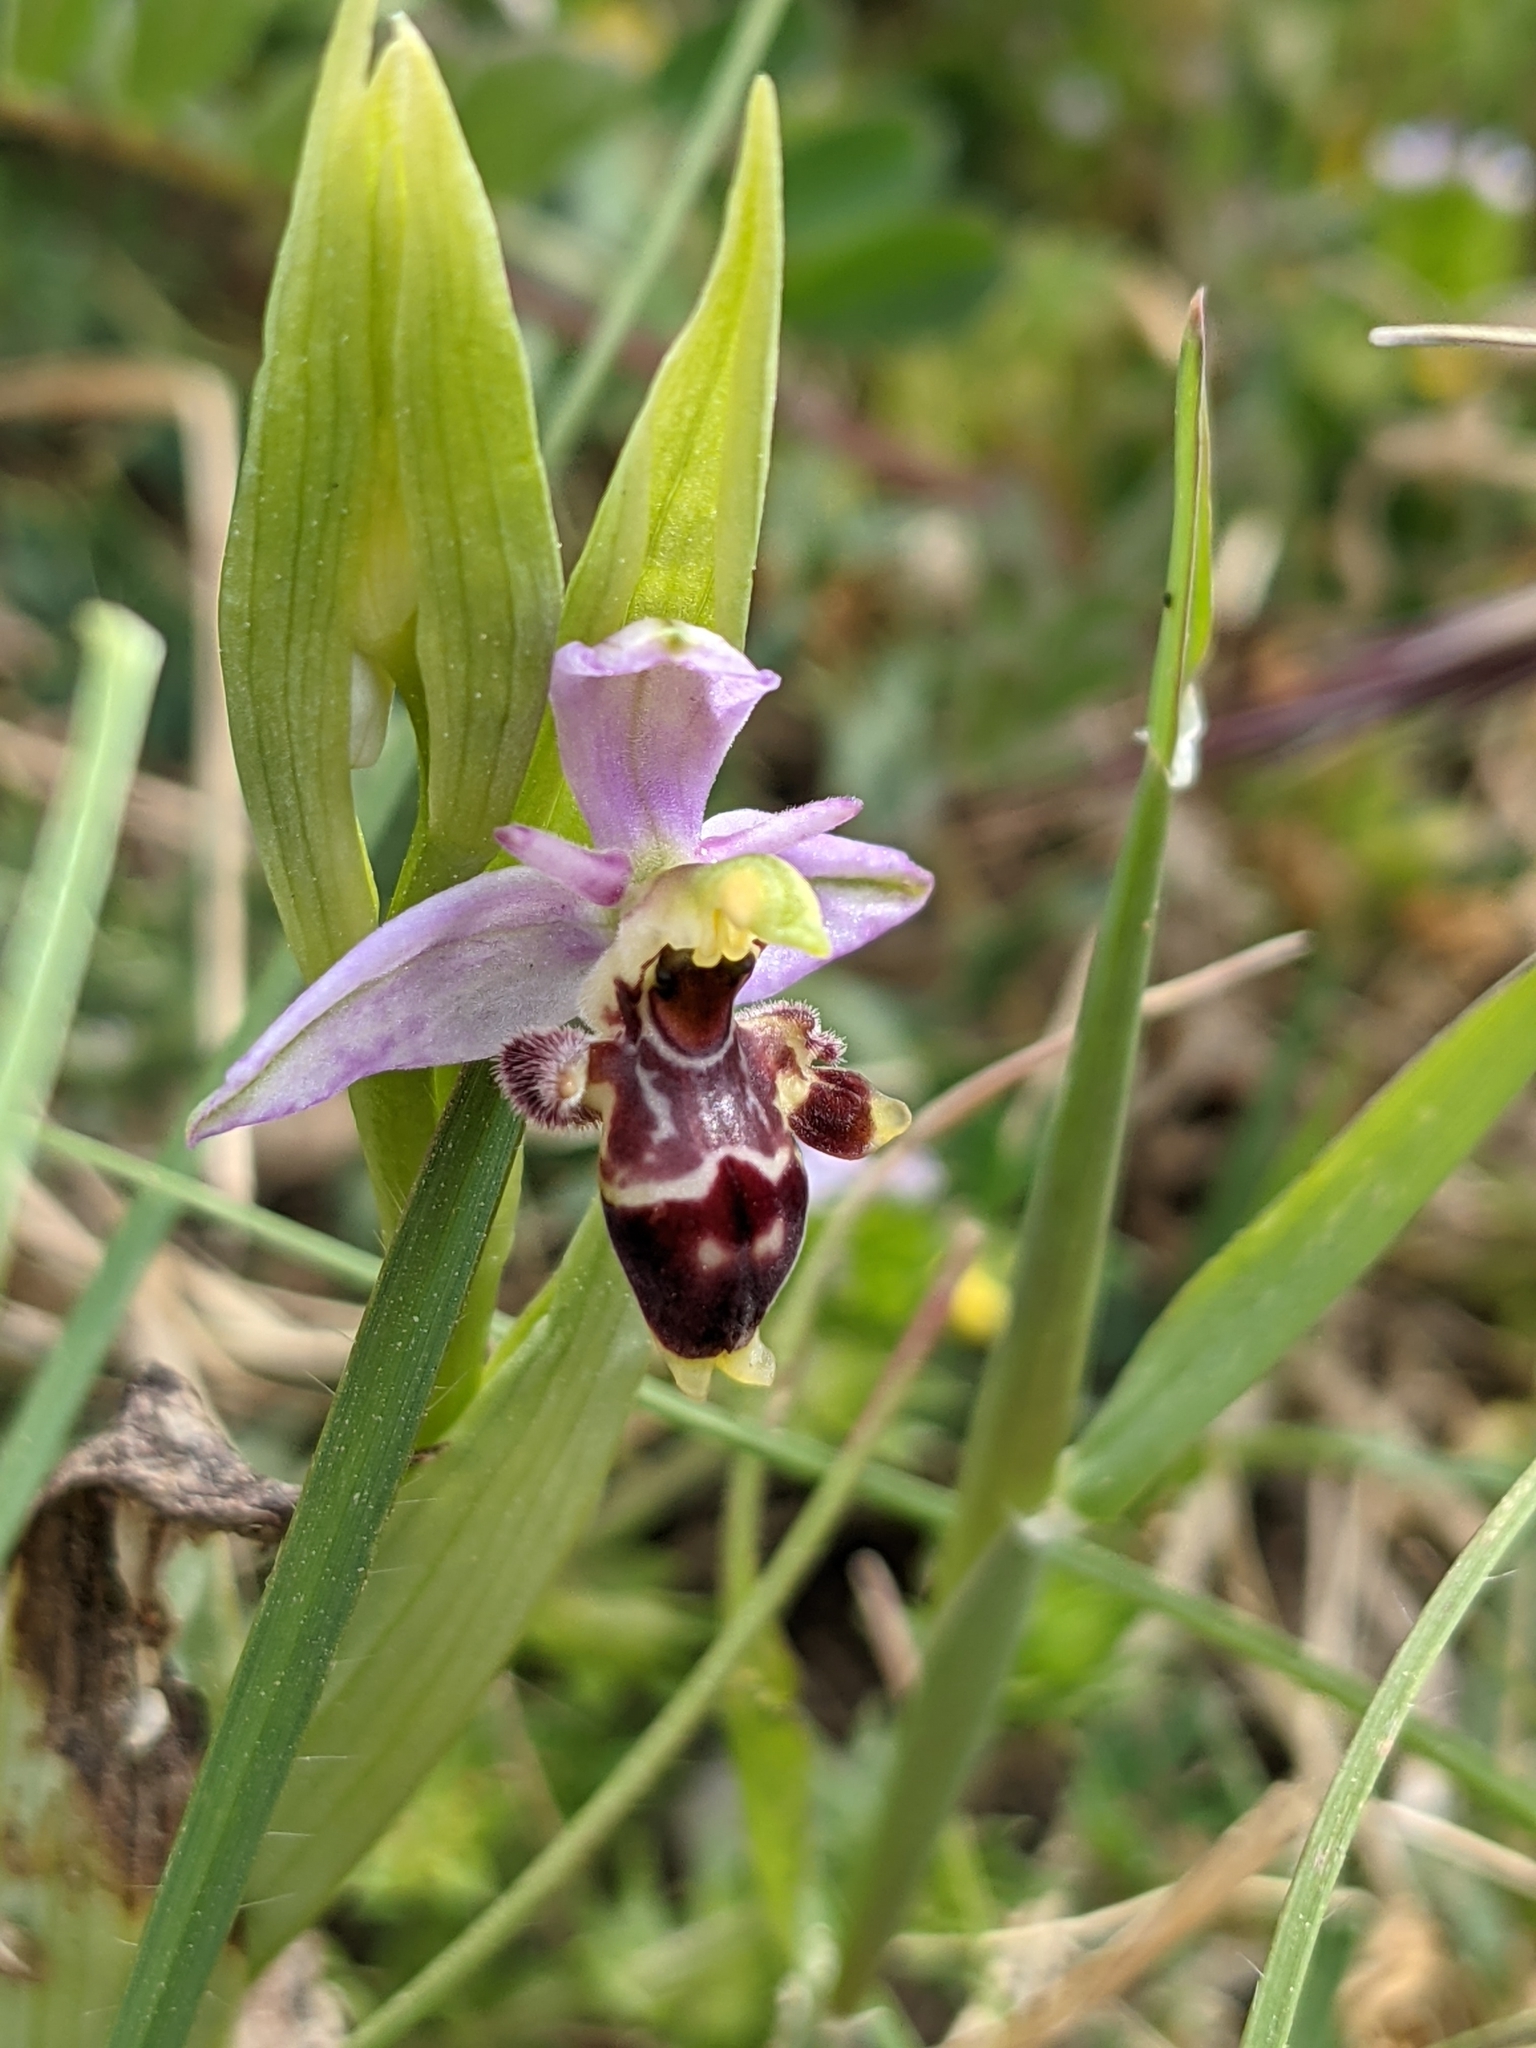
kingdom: Plantae
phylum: Tracheophyta
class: Liliopsida
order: Asparagales
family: Orchidaceae
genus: Ophrys
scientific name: Ophrys scolopax
